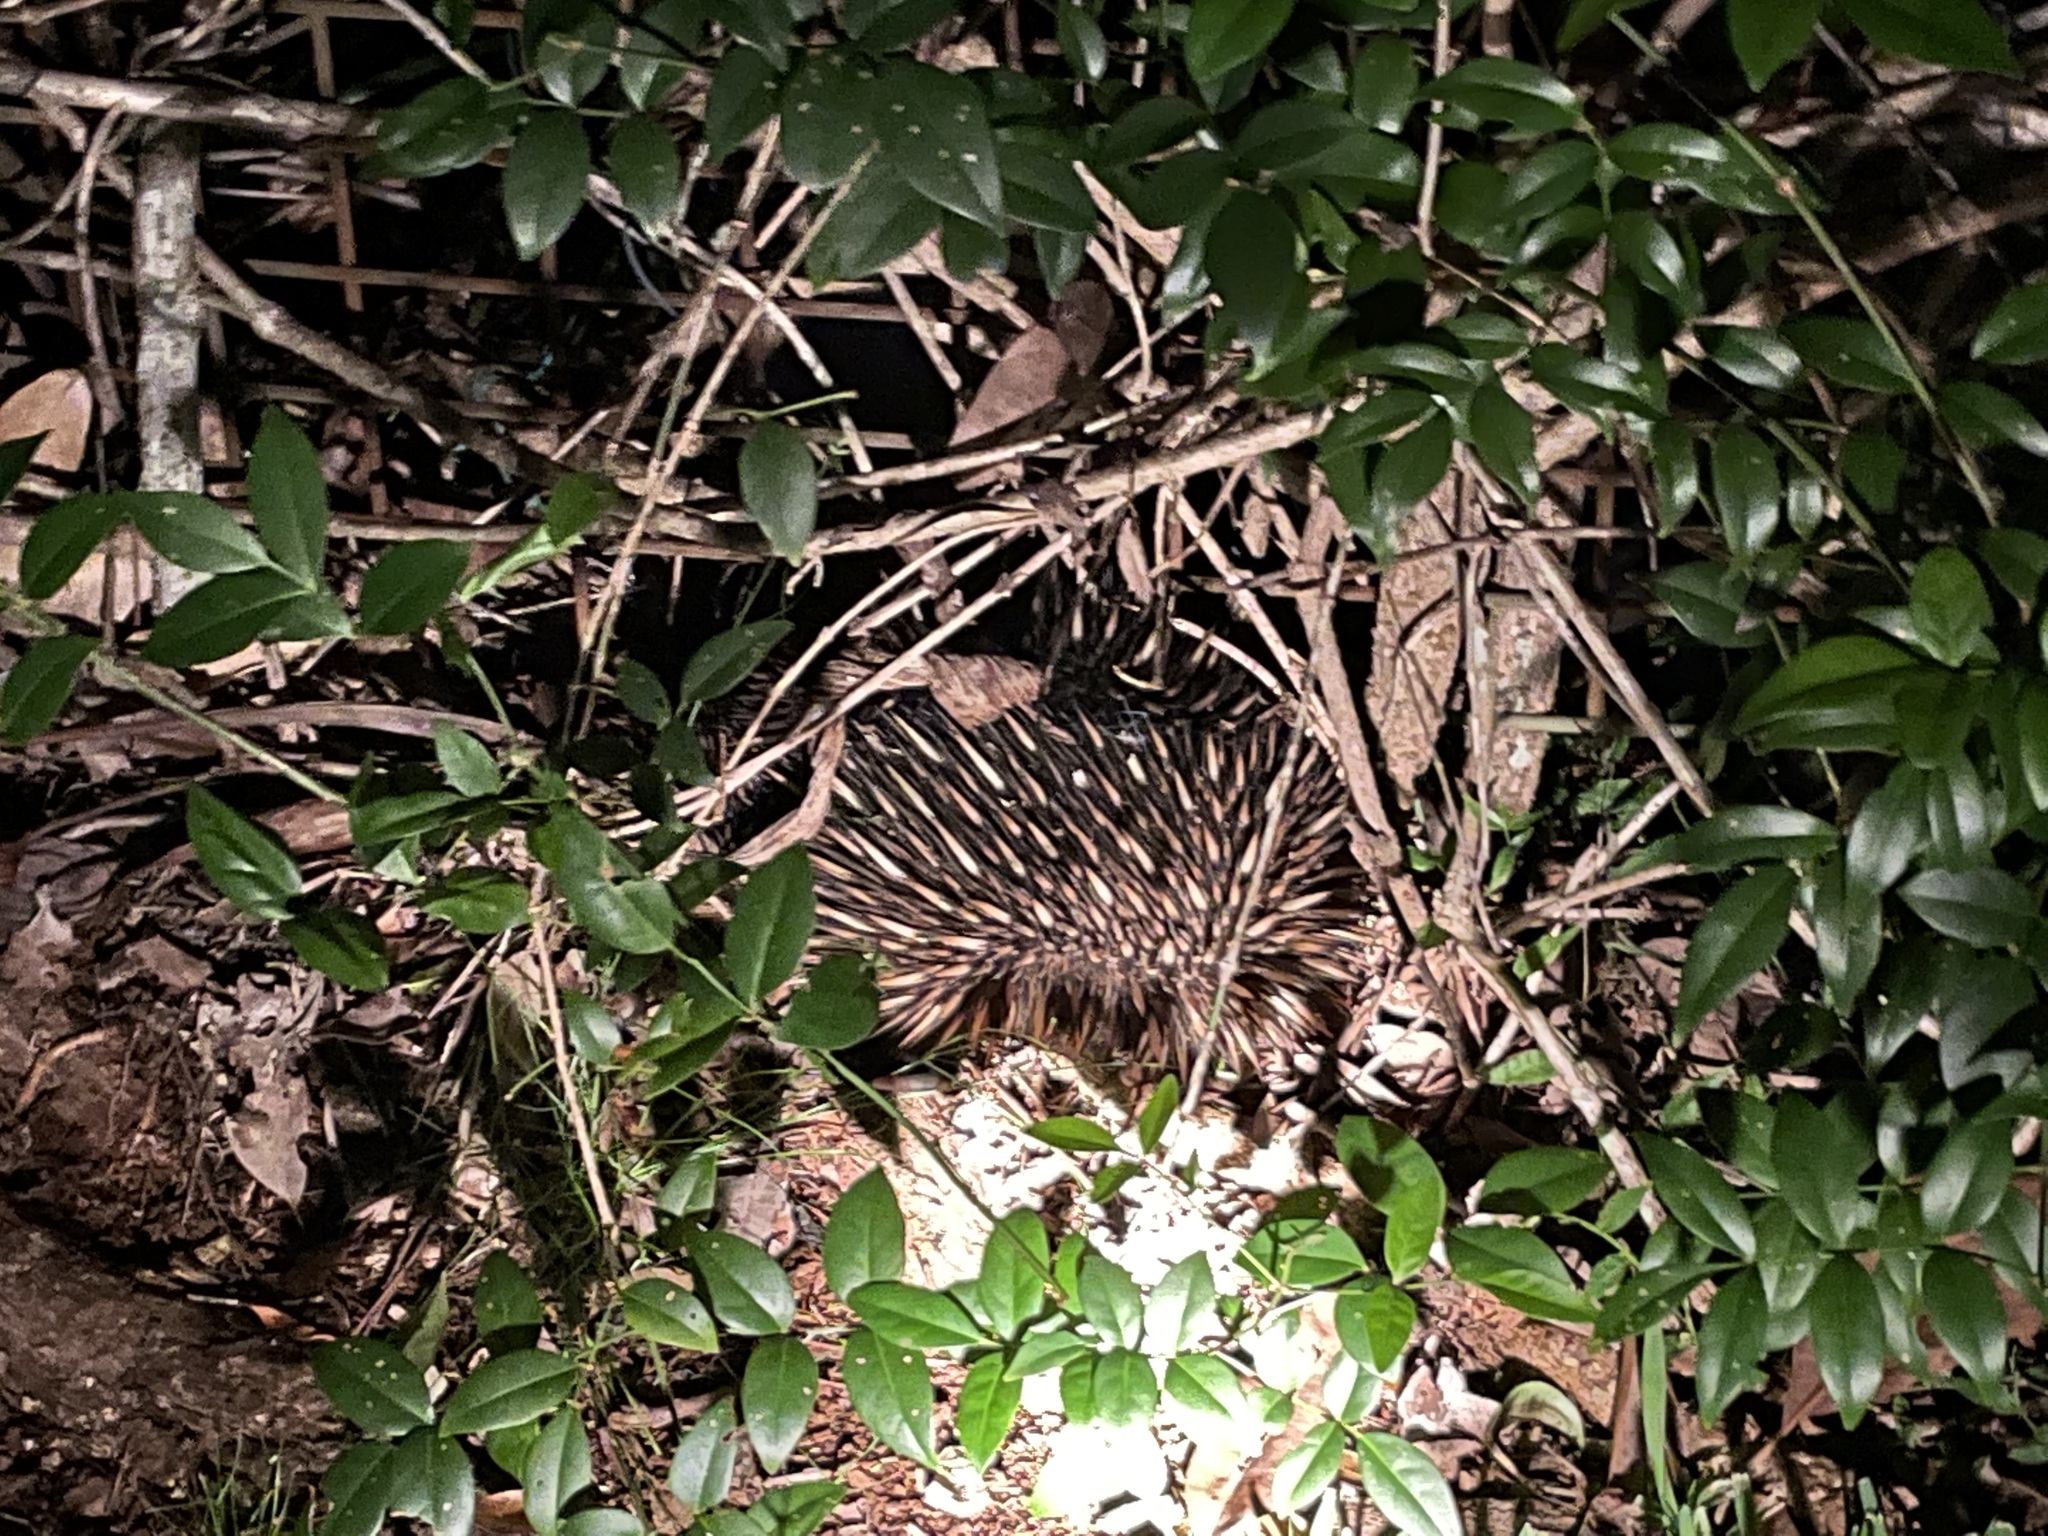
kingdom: Animalia
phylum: Chordata
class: Mammalia
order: Monotremata
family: Tachyglossidae
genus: Tachyglossus
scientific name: Tachyglossus aculeatus
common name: Short-beaked echidna
